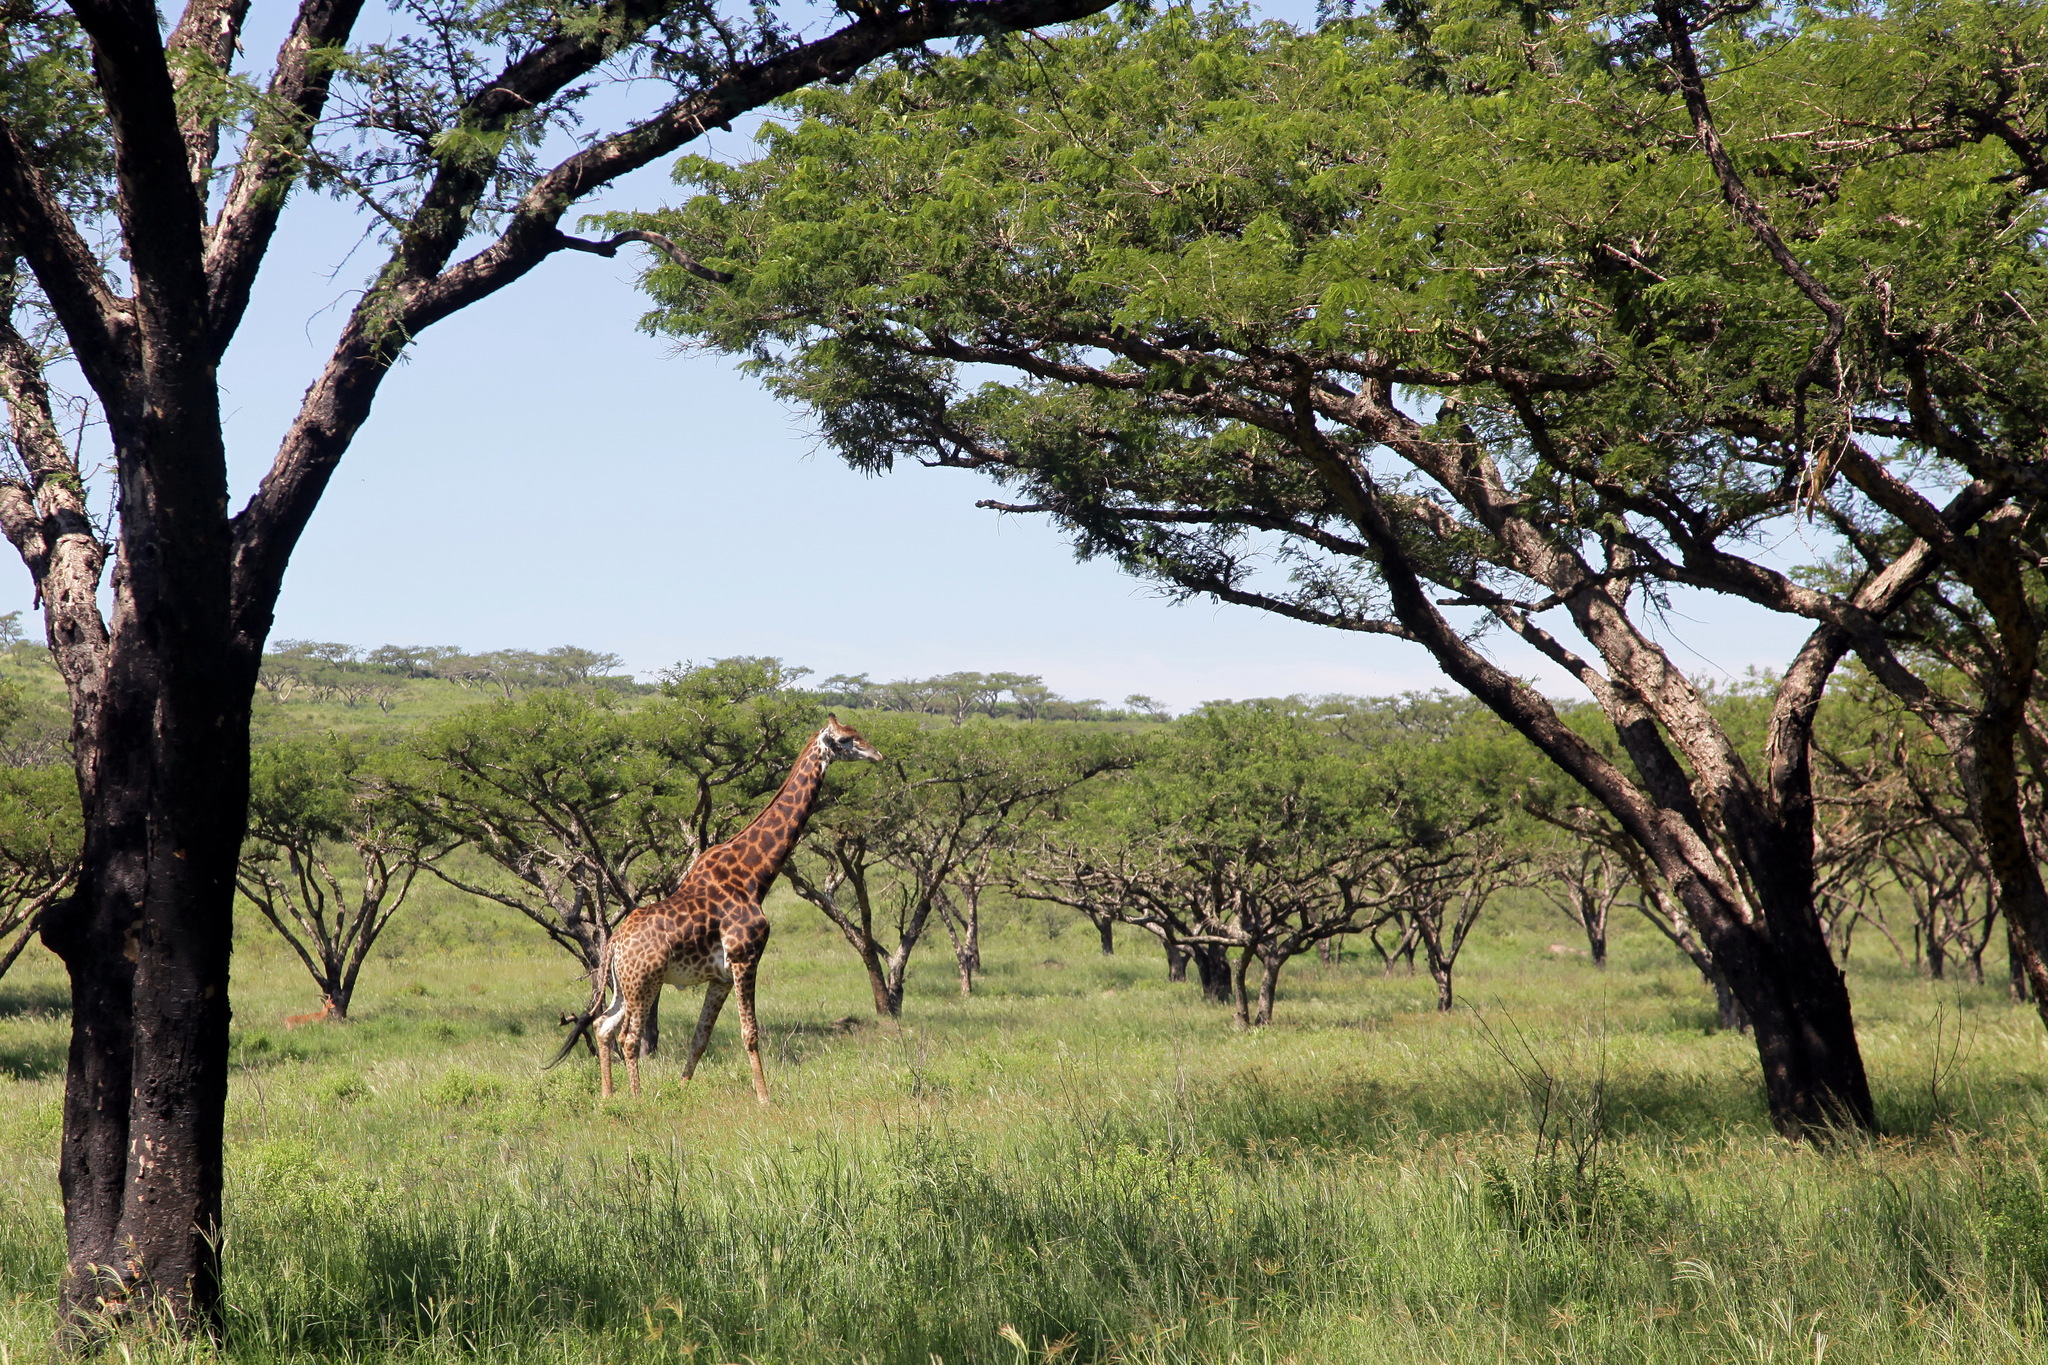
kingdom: Animalia
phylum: Chordata
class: Mammalia
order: Artiodactyla
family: Giraffidae
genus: Giraffa
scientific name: Giraffa giraffa
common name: Southern giraffe
